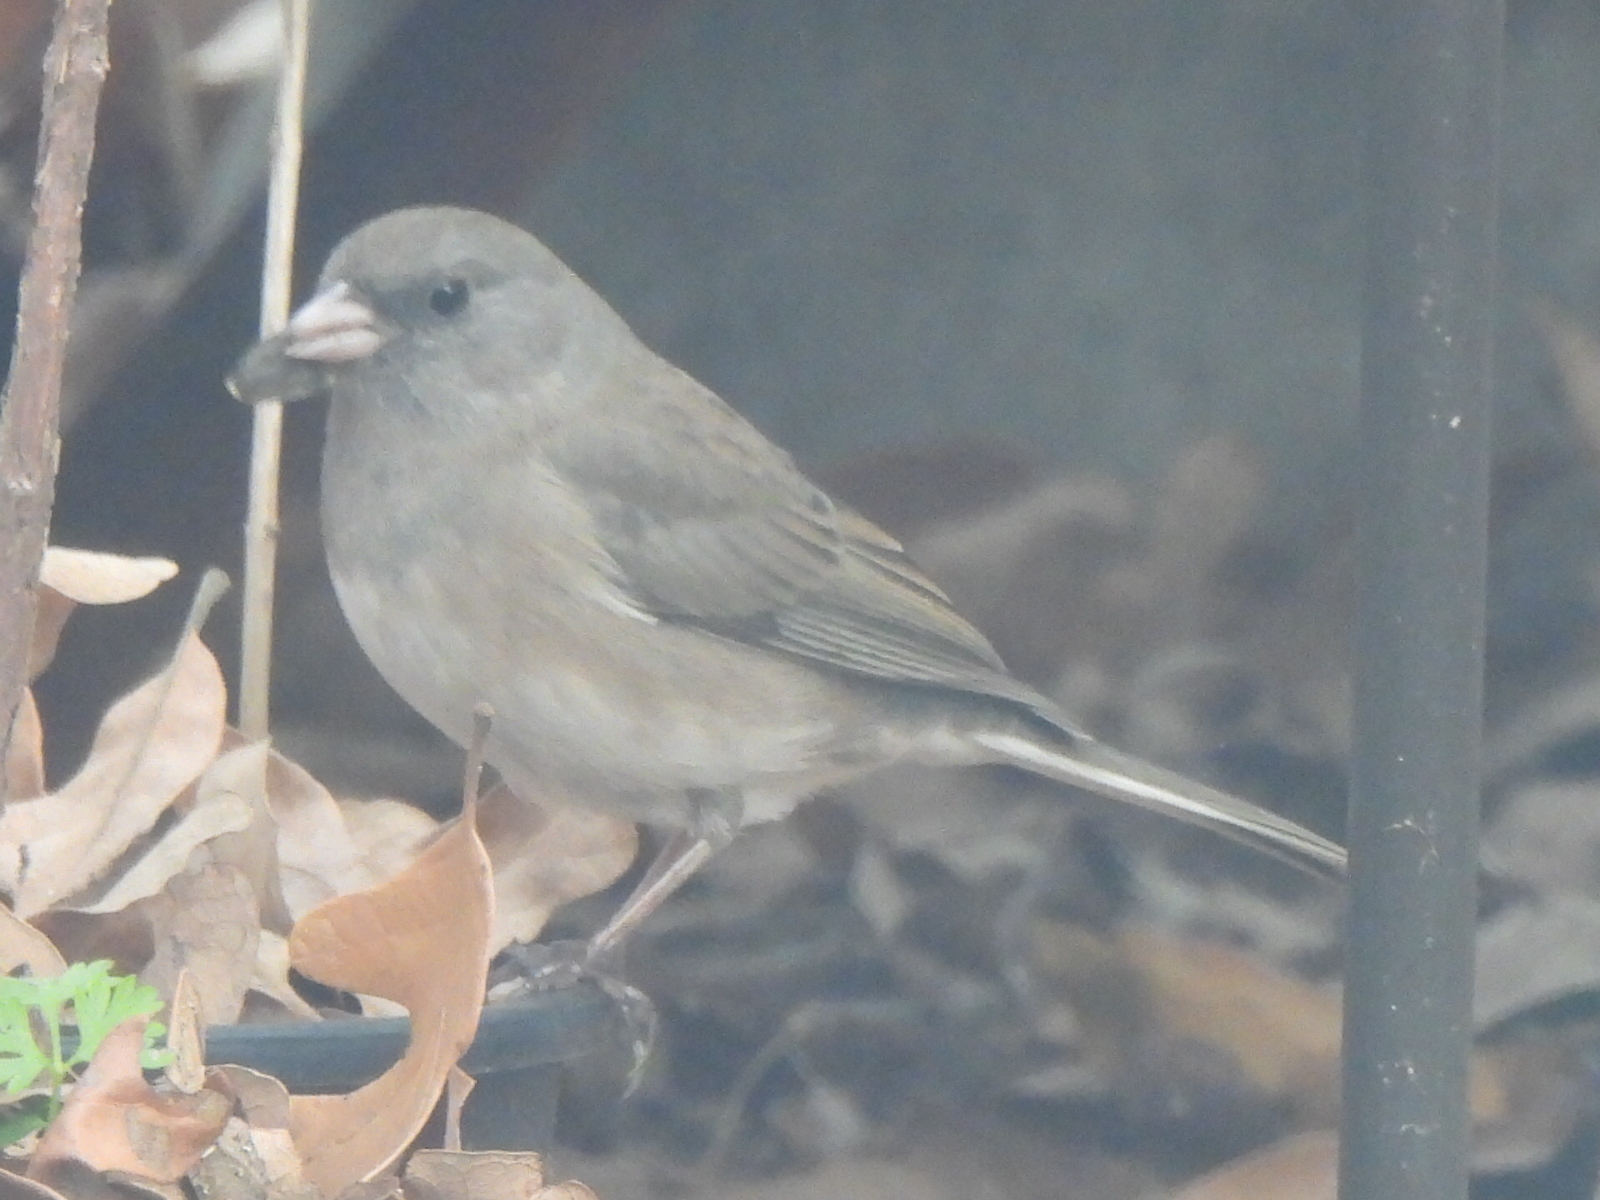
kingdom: Animalia
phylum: Chordata
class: Aves
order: Passeriformes
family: Passerellidae
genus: Junco
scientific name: Junco hyemalis
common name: Dark-eyed junco
